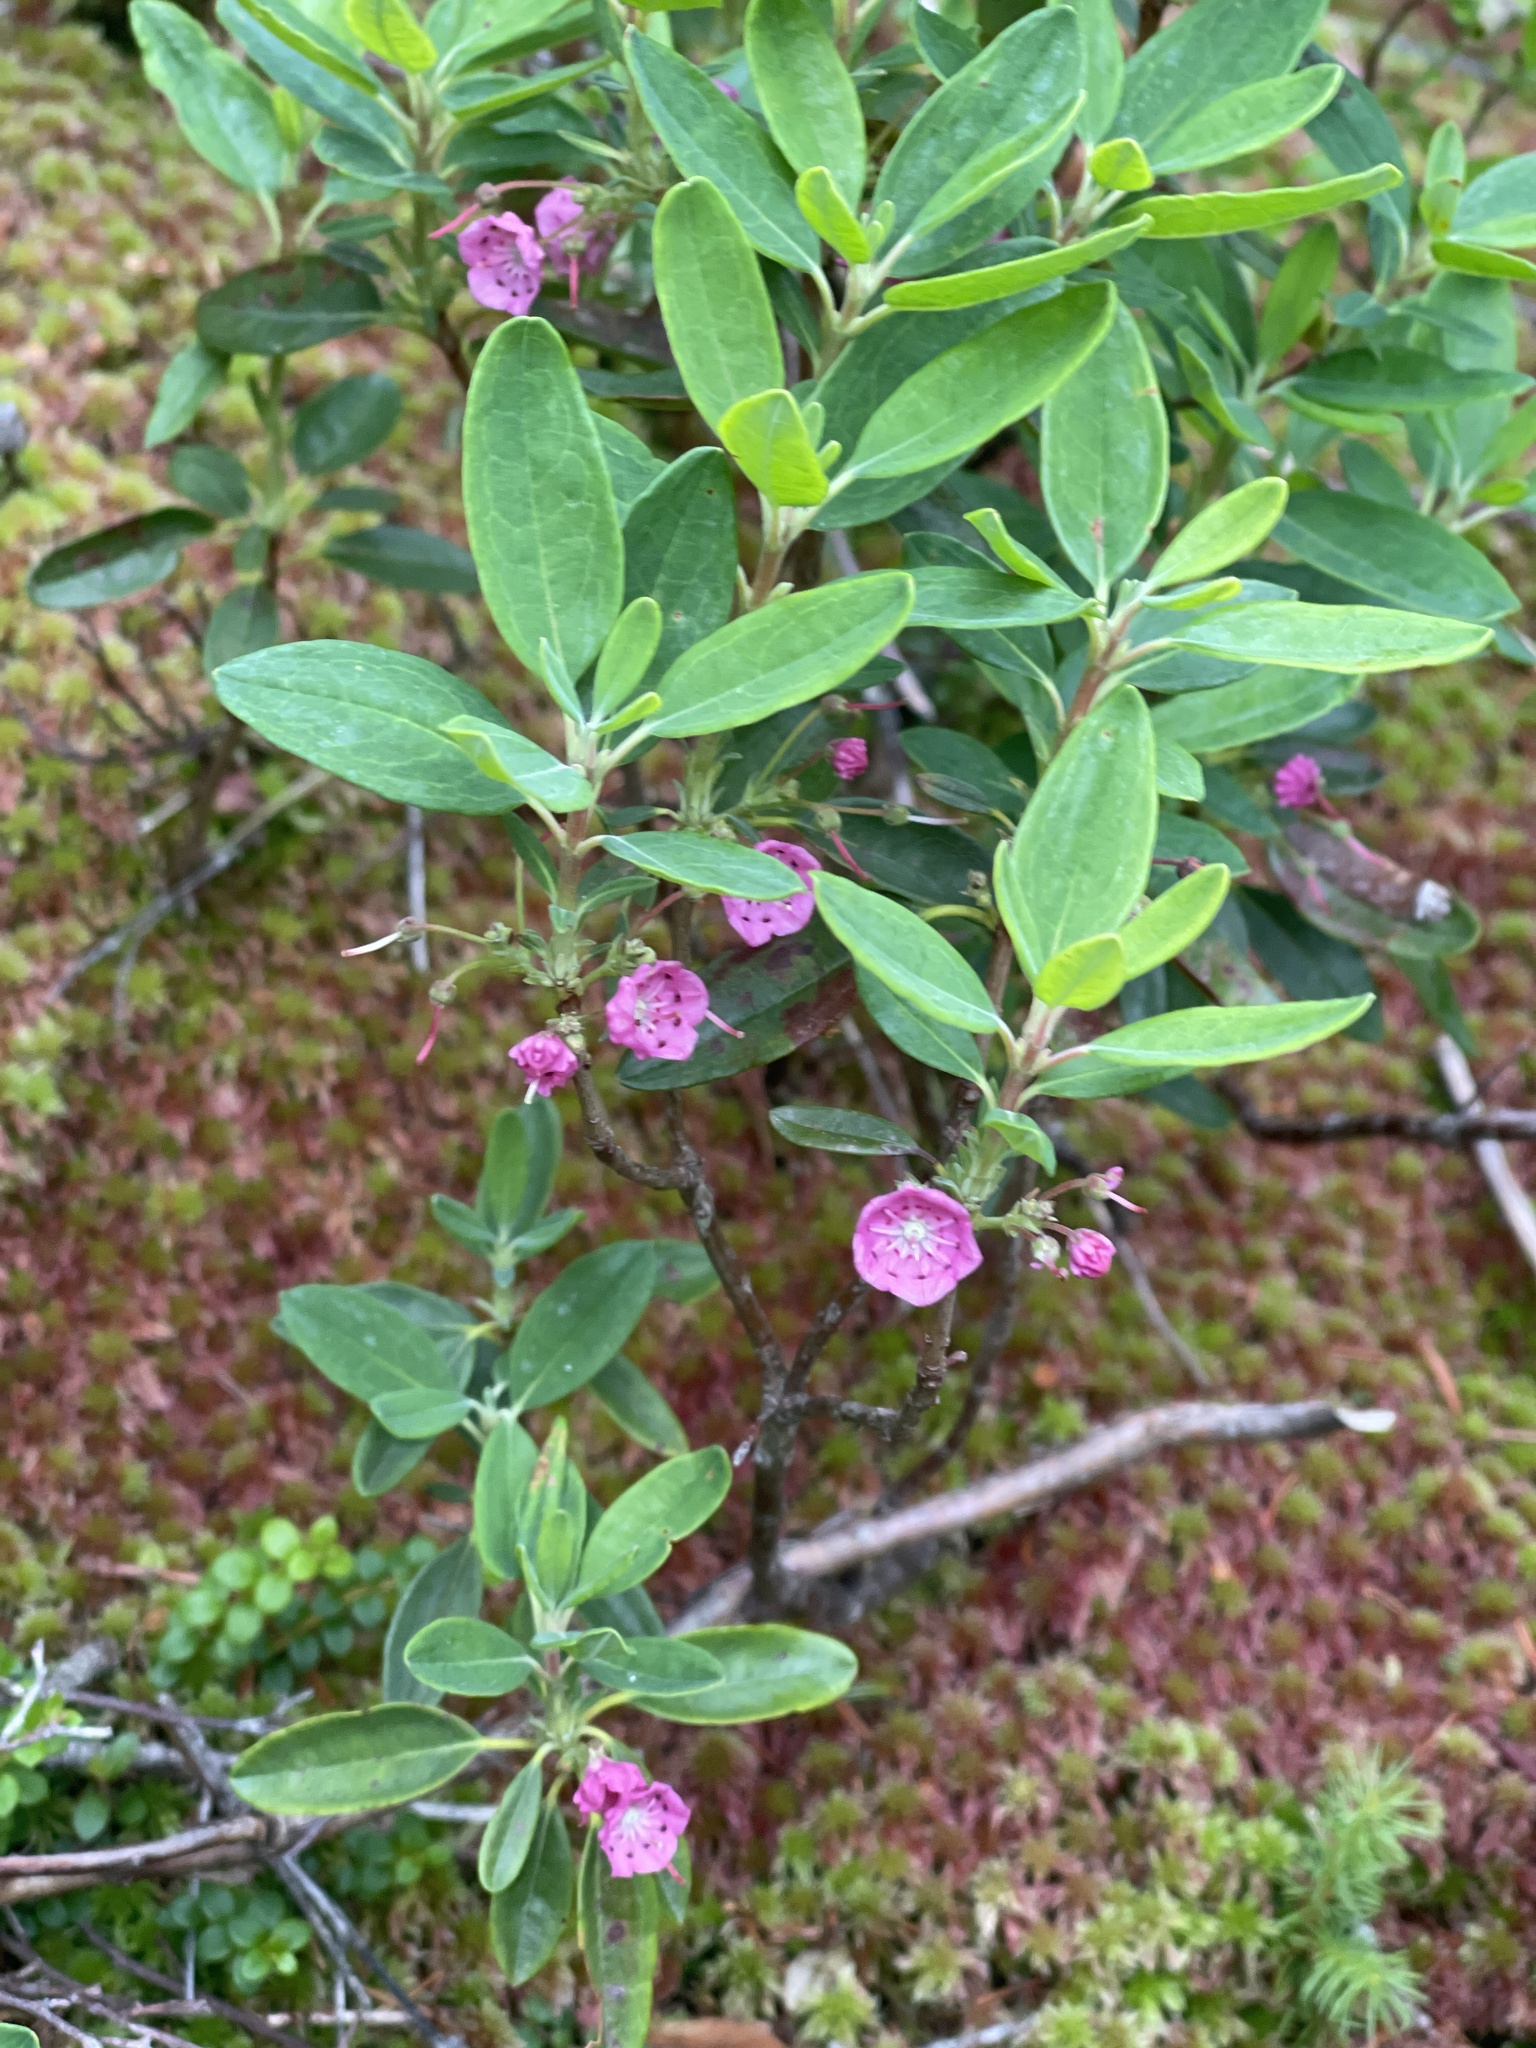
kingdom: Plantae
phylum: Tracheophyta
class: Magnoliopsida
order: Ericales
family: Ericaceae
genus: Kalmia
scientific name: Kalmia angustifolia
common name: Sheep-laurel
